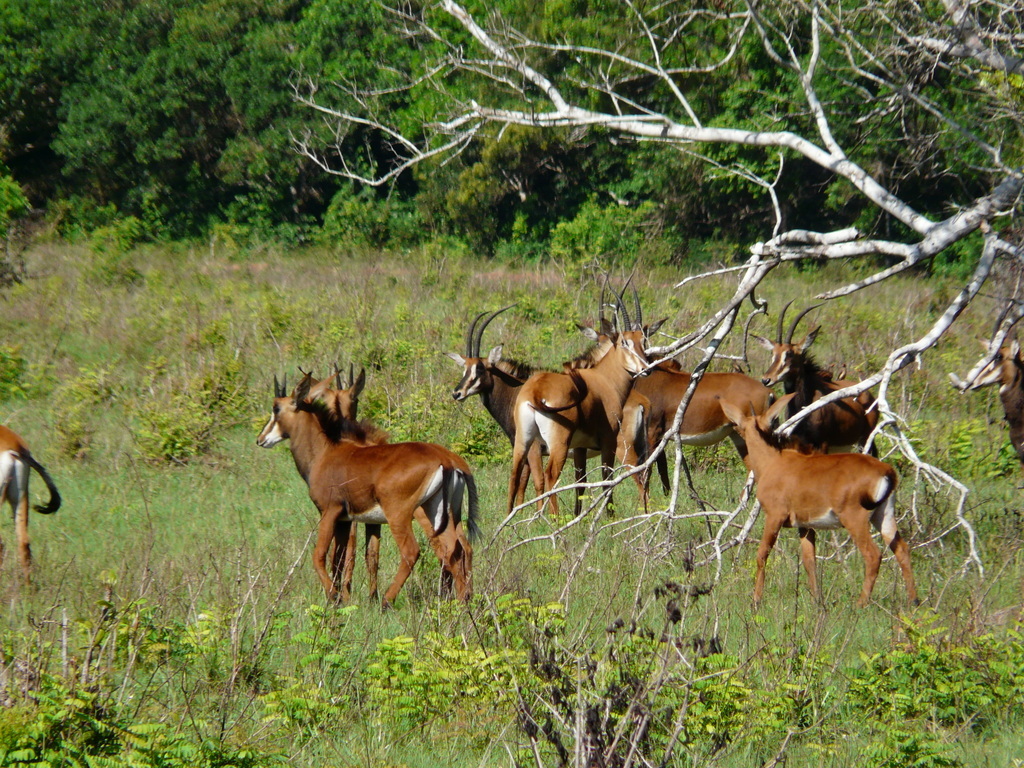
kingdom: Animalia
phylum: Chordata
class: Mammalia
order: Artiodactyla
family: Bovidae
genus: Hippotragus
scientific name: Hippotragus niger
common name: Sable antelope
